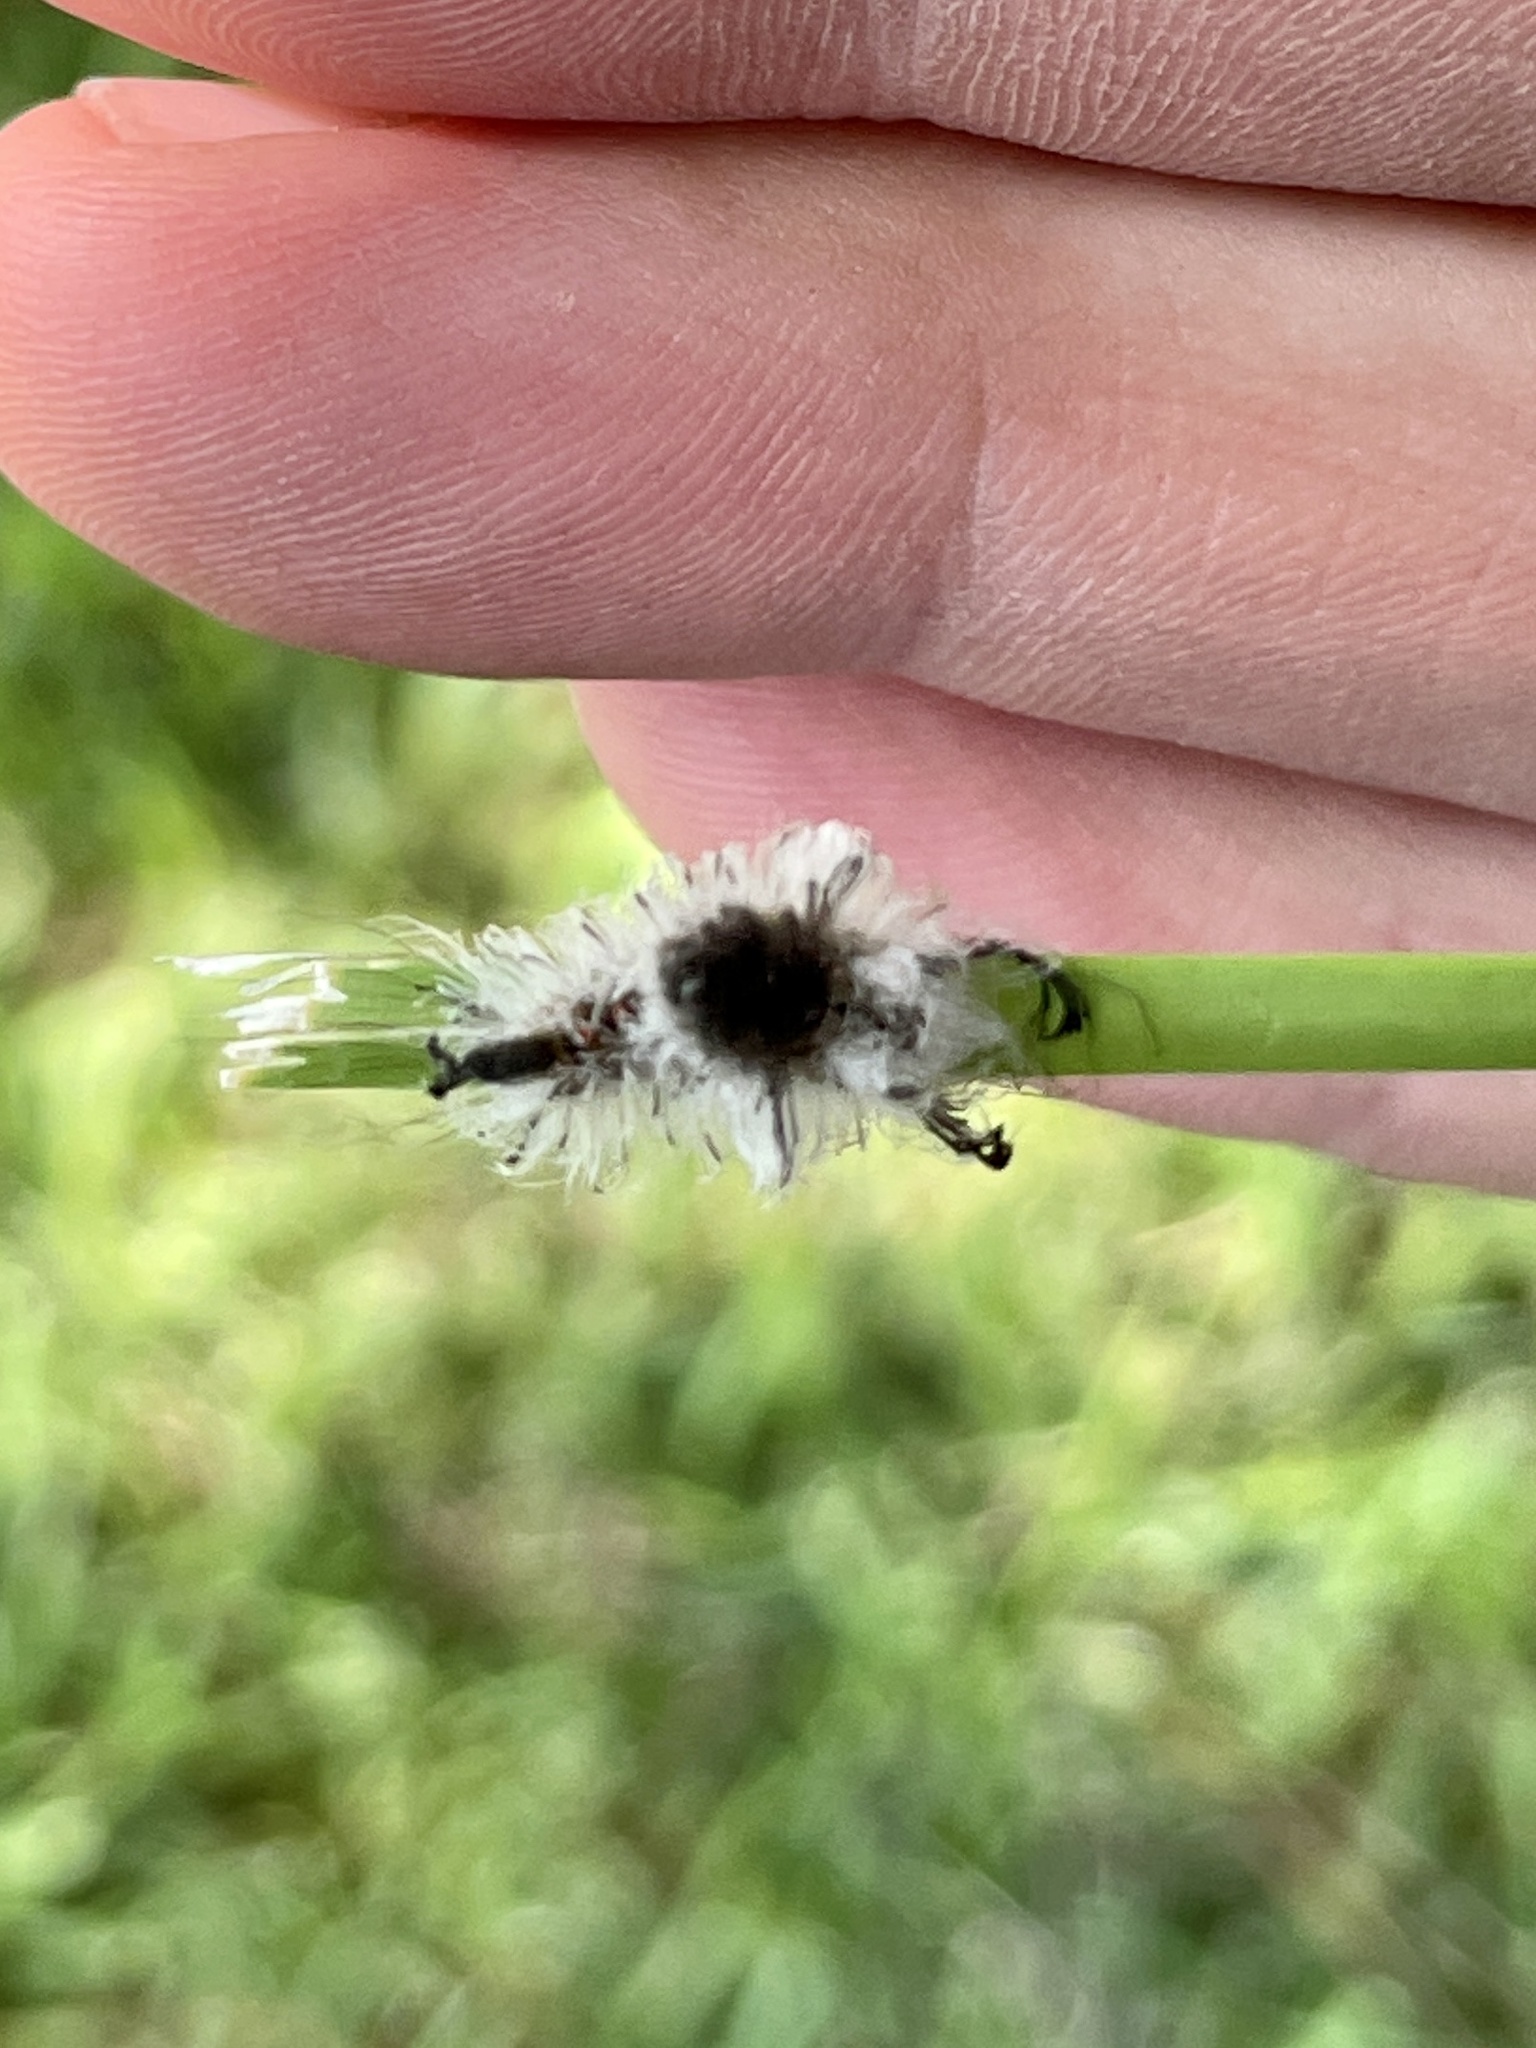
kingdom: Animalia
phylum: Arthropoda
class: Insecta
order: Lepidoptera
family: Erebidae
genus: Dasychira
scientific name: Dasychira meridionalis
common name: Southern tussock moth
